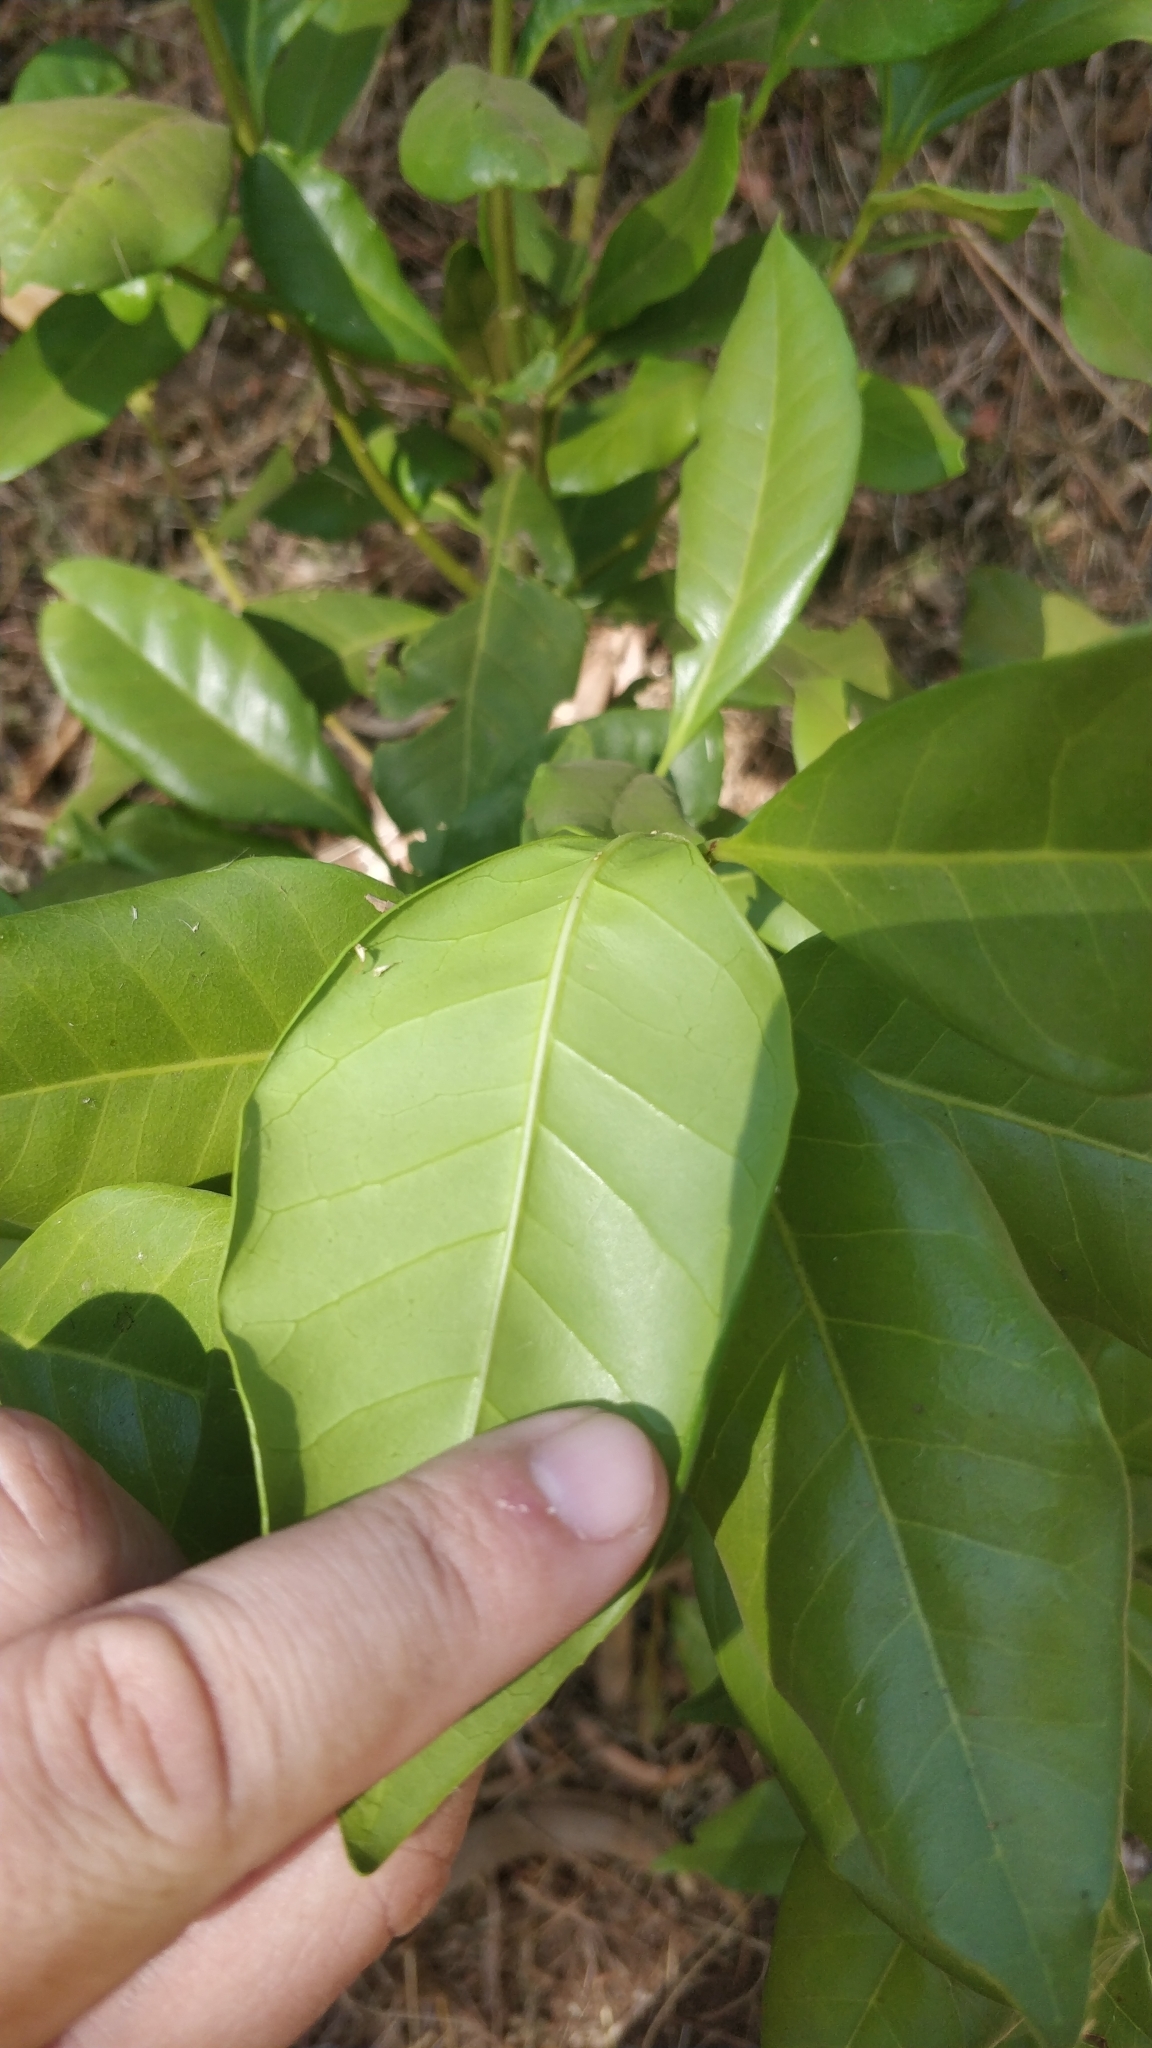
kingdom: Plantae
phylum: Tracheophyta
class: Magnoliopsida
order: Lamiales
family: Oleaceae
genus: Picconia
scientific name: Picconia excelsa
